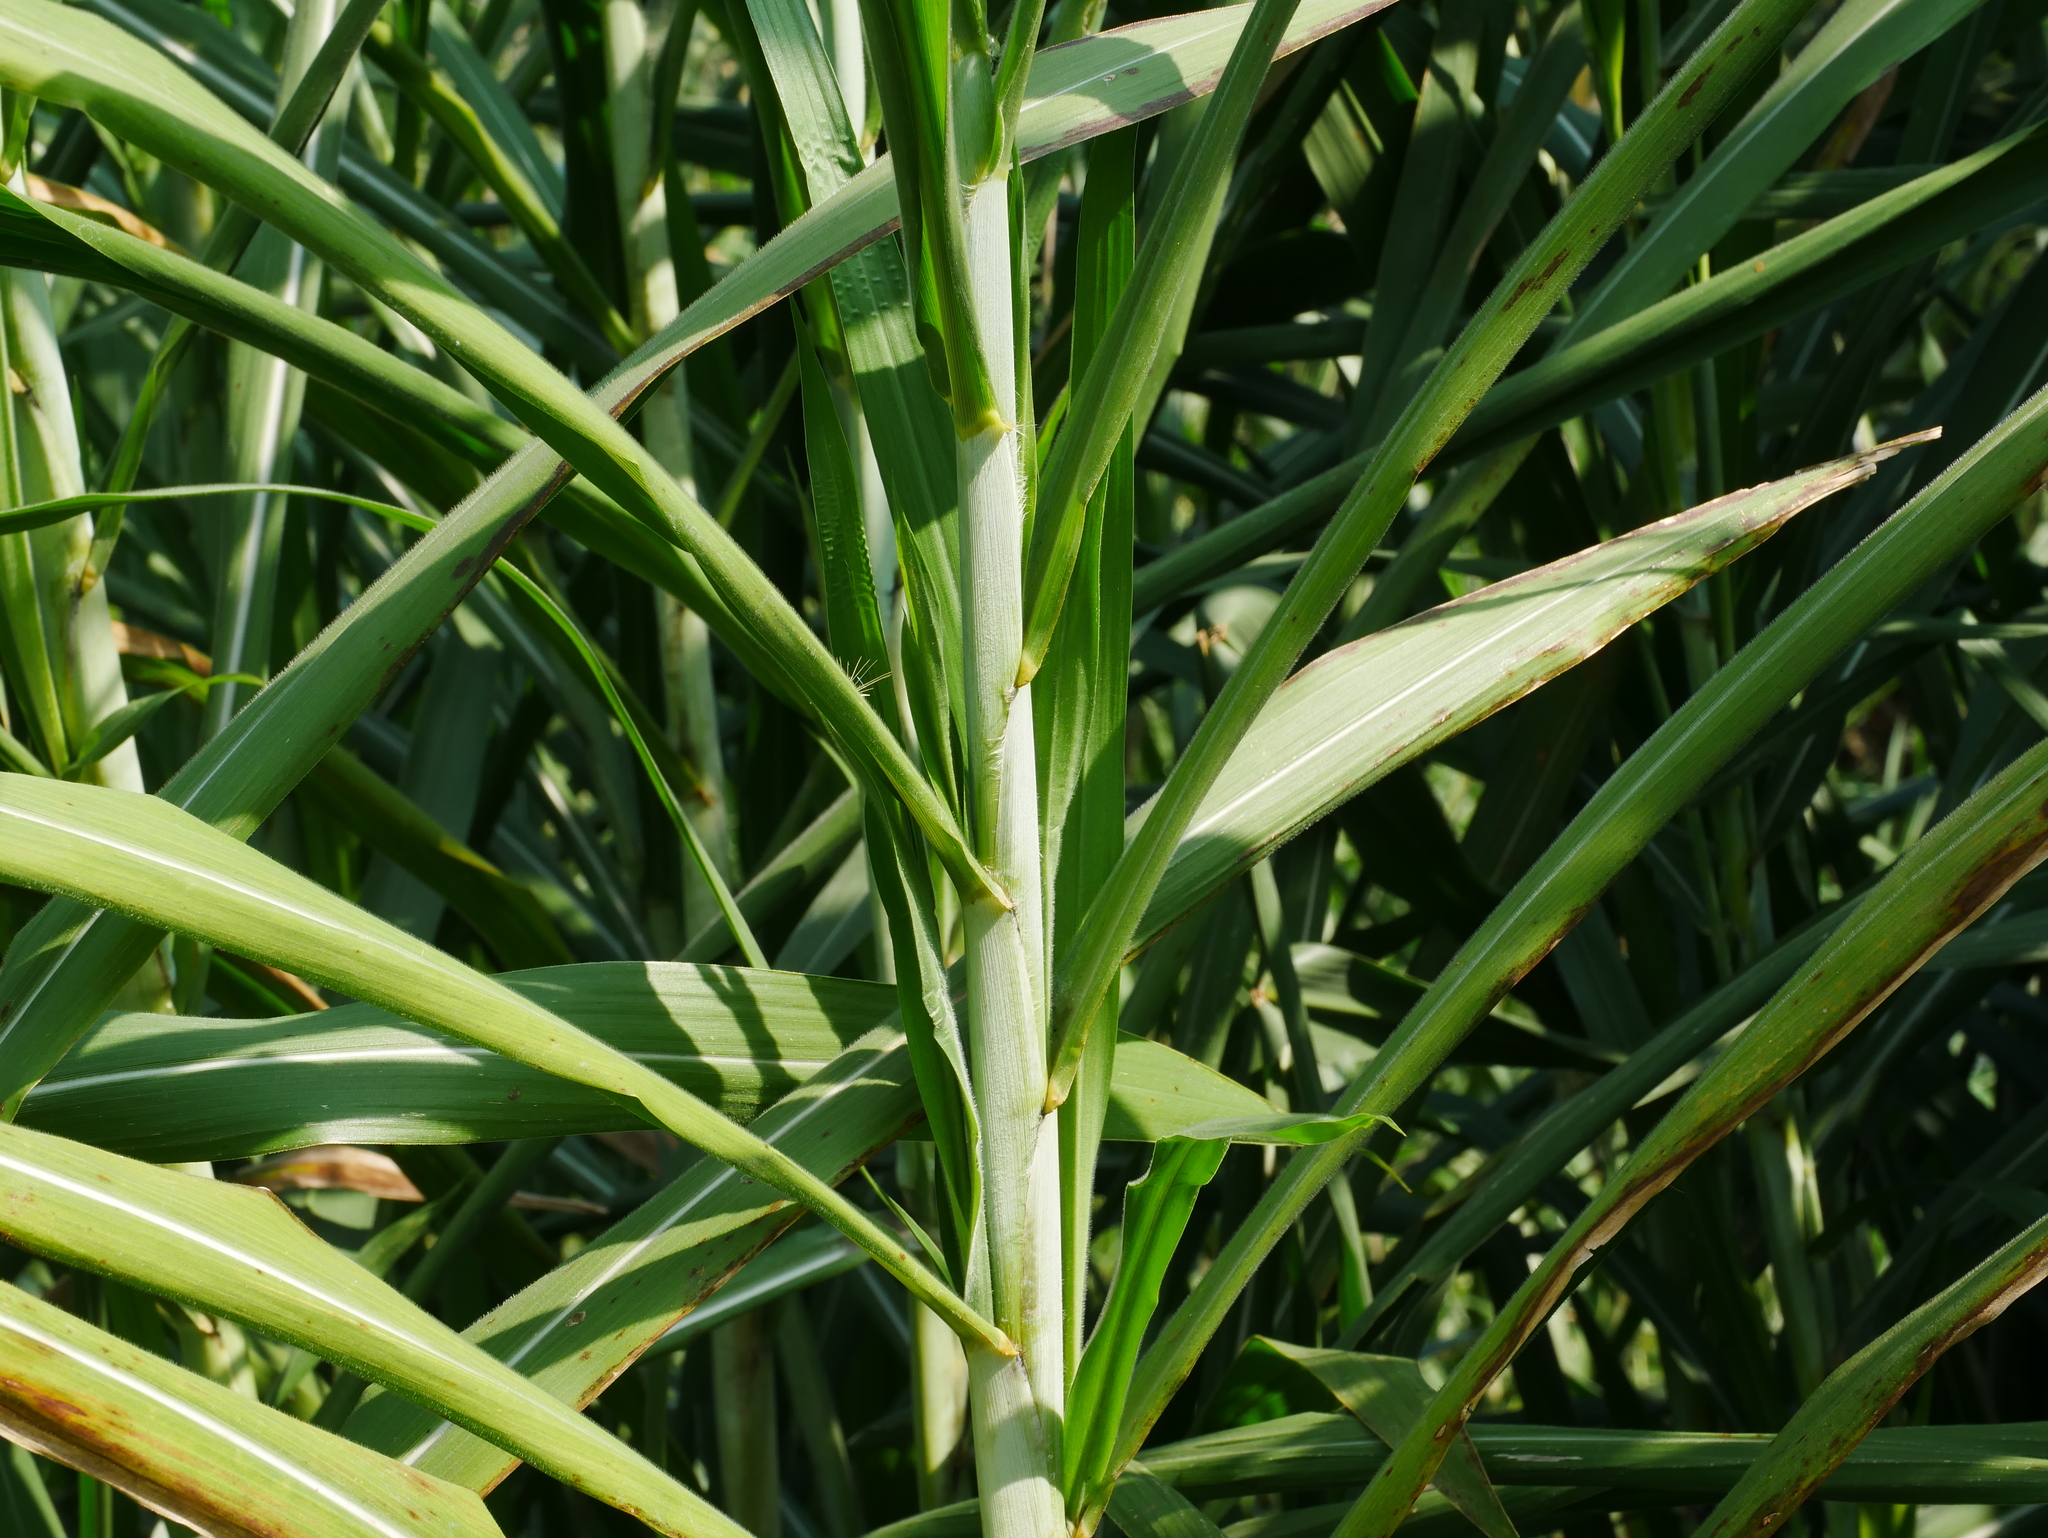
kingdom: Plantae
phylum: Tracheophyta
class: Liliopsida
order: Poales
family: Poaceae
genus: Cenchrus
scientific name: Cenchrus purpureus
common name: Elephant grass
